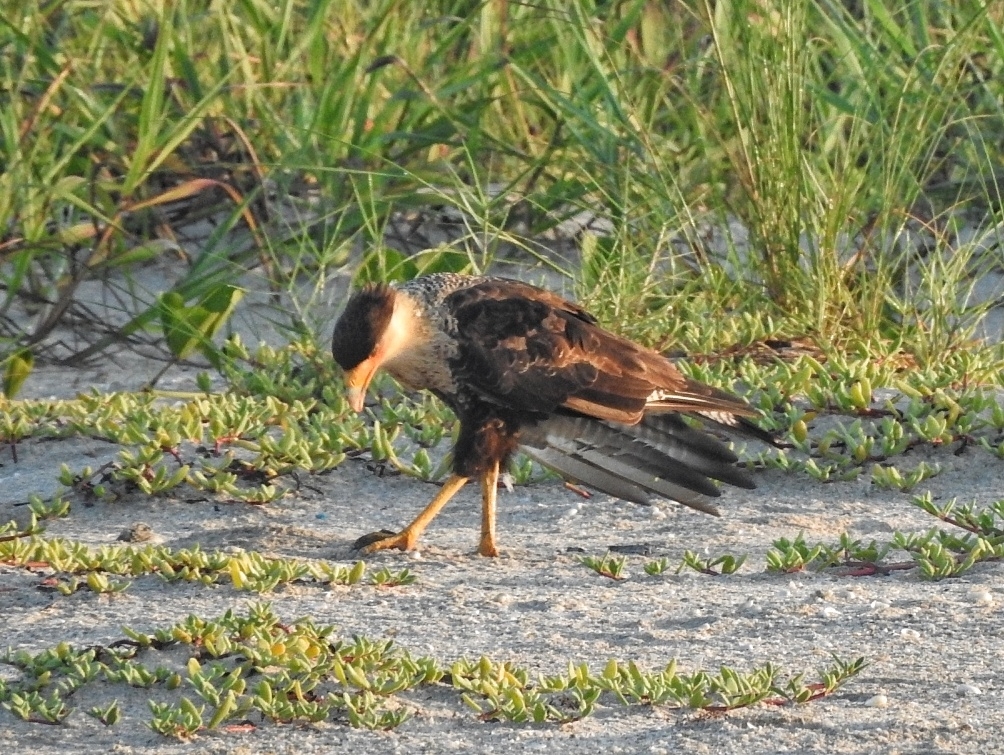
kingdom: Animalia
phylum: Chordata
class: Aves
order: Falconiformes
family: Falconidae
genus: Caracara
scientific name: Caracara plancus
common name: Southern caracara
